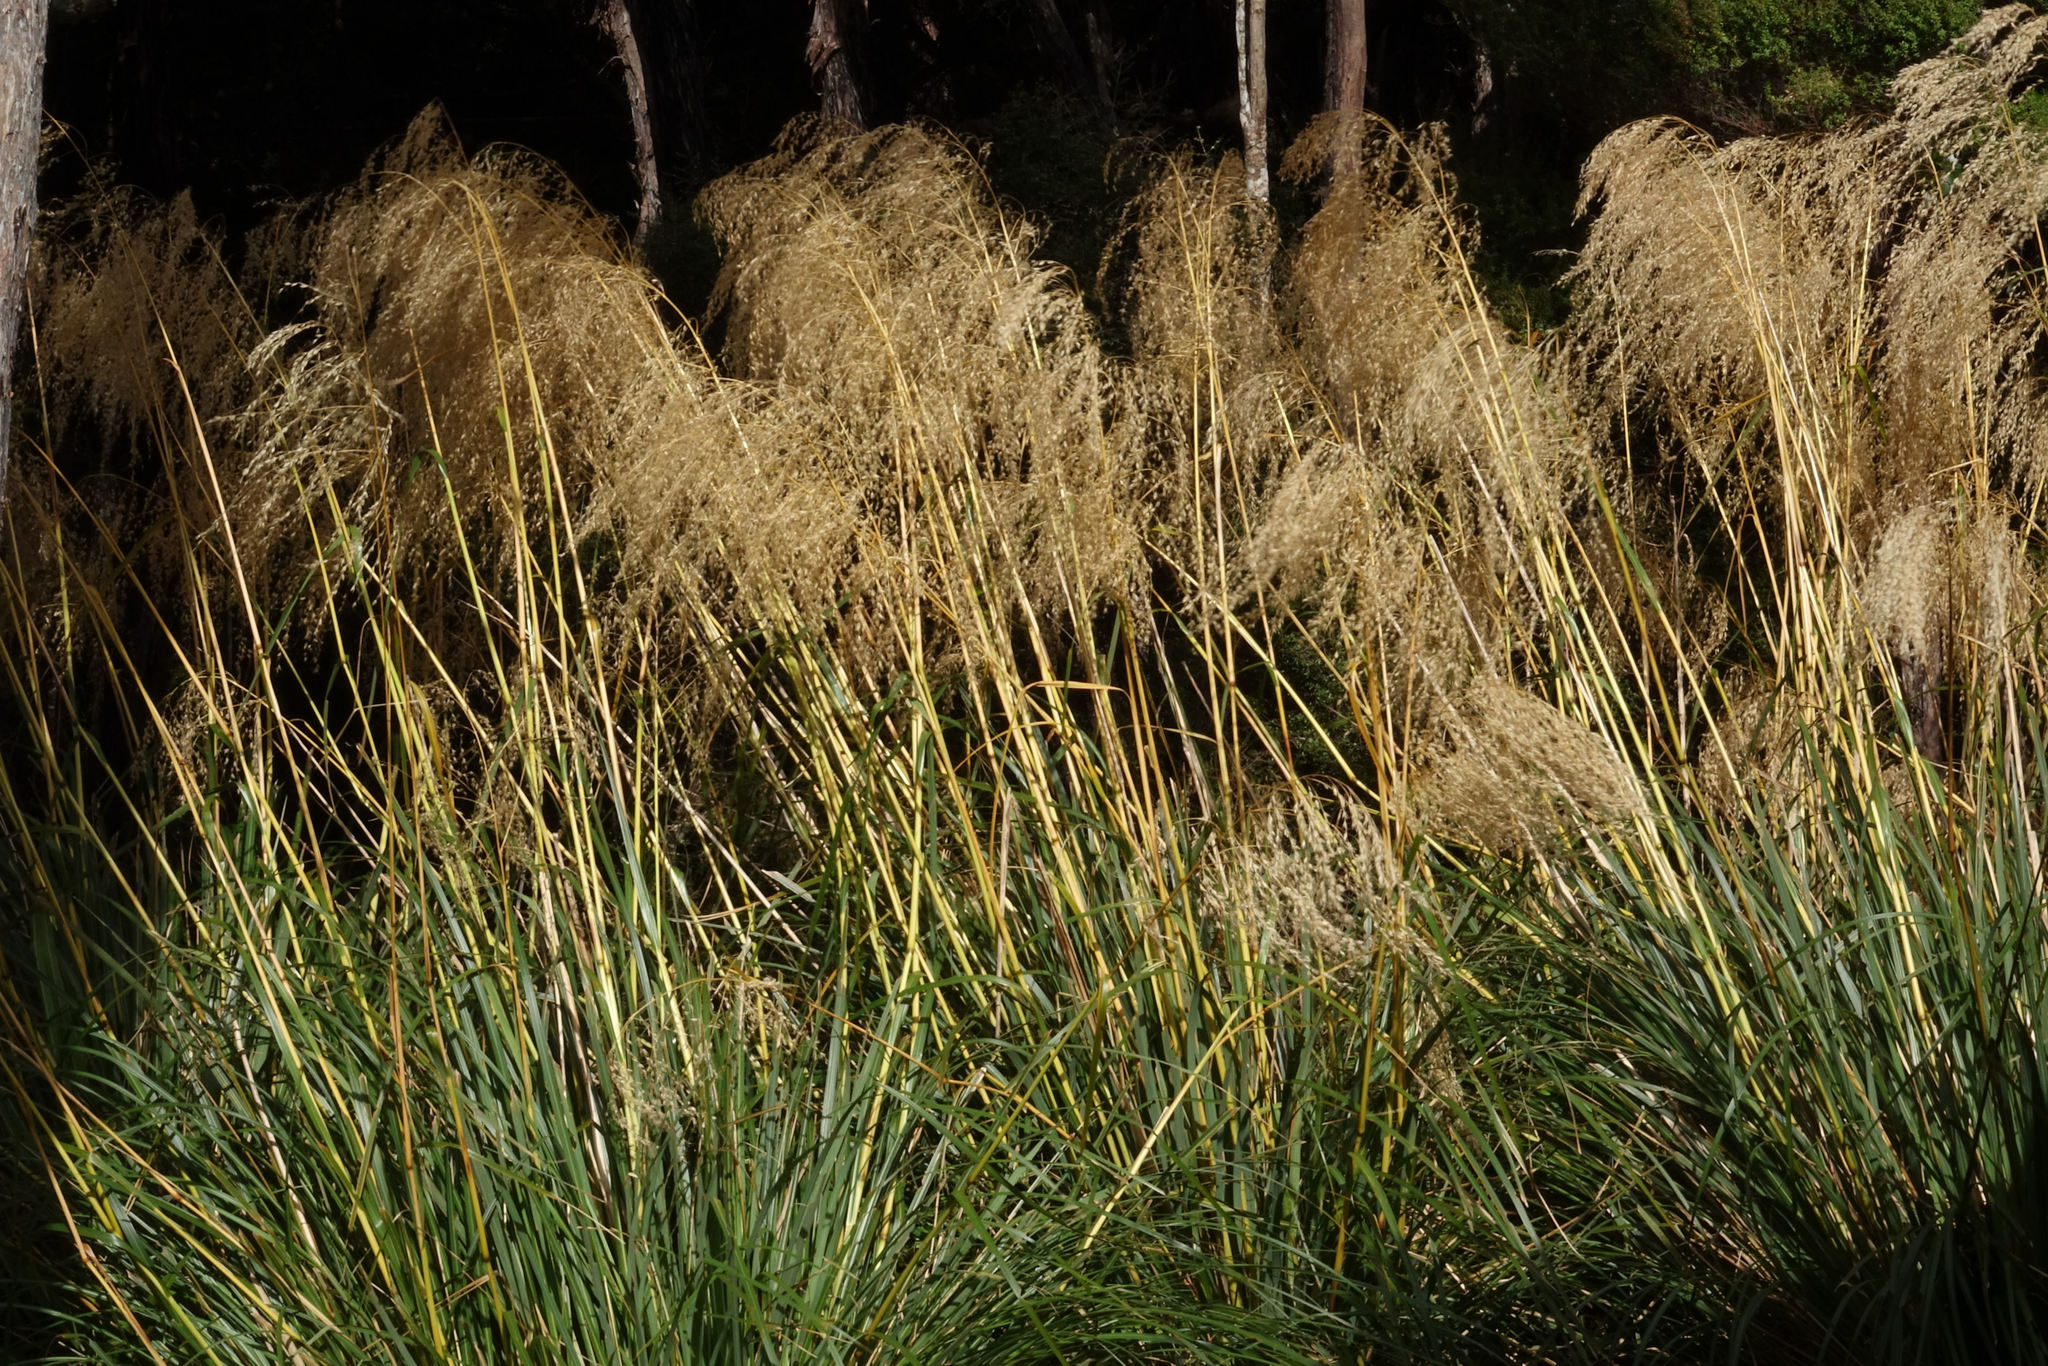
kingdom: Plantae
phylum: Tracheophyta
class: Liliopsida
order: Poales
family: Poaceae
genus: Chionochloa
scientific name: Chionochloa conspicua
